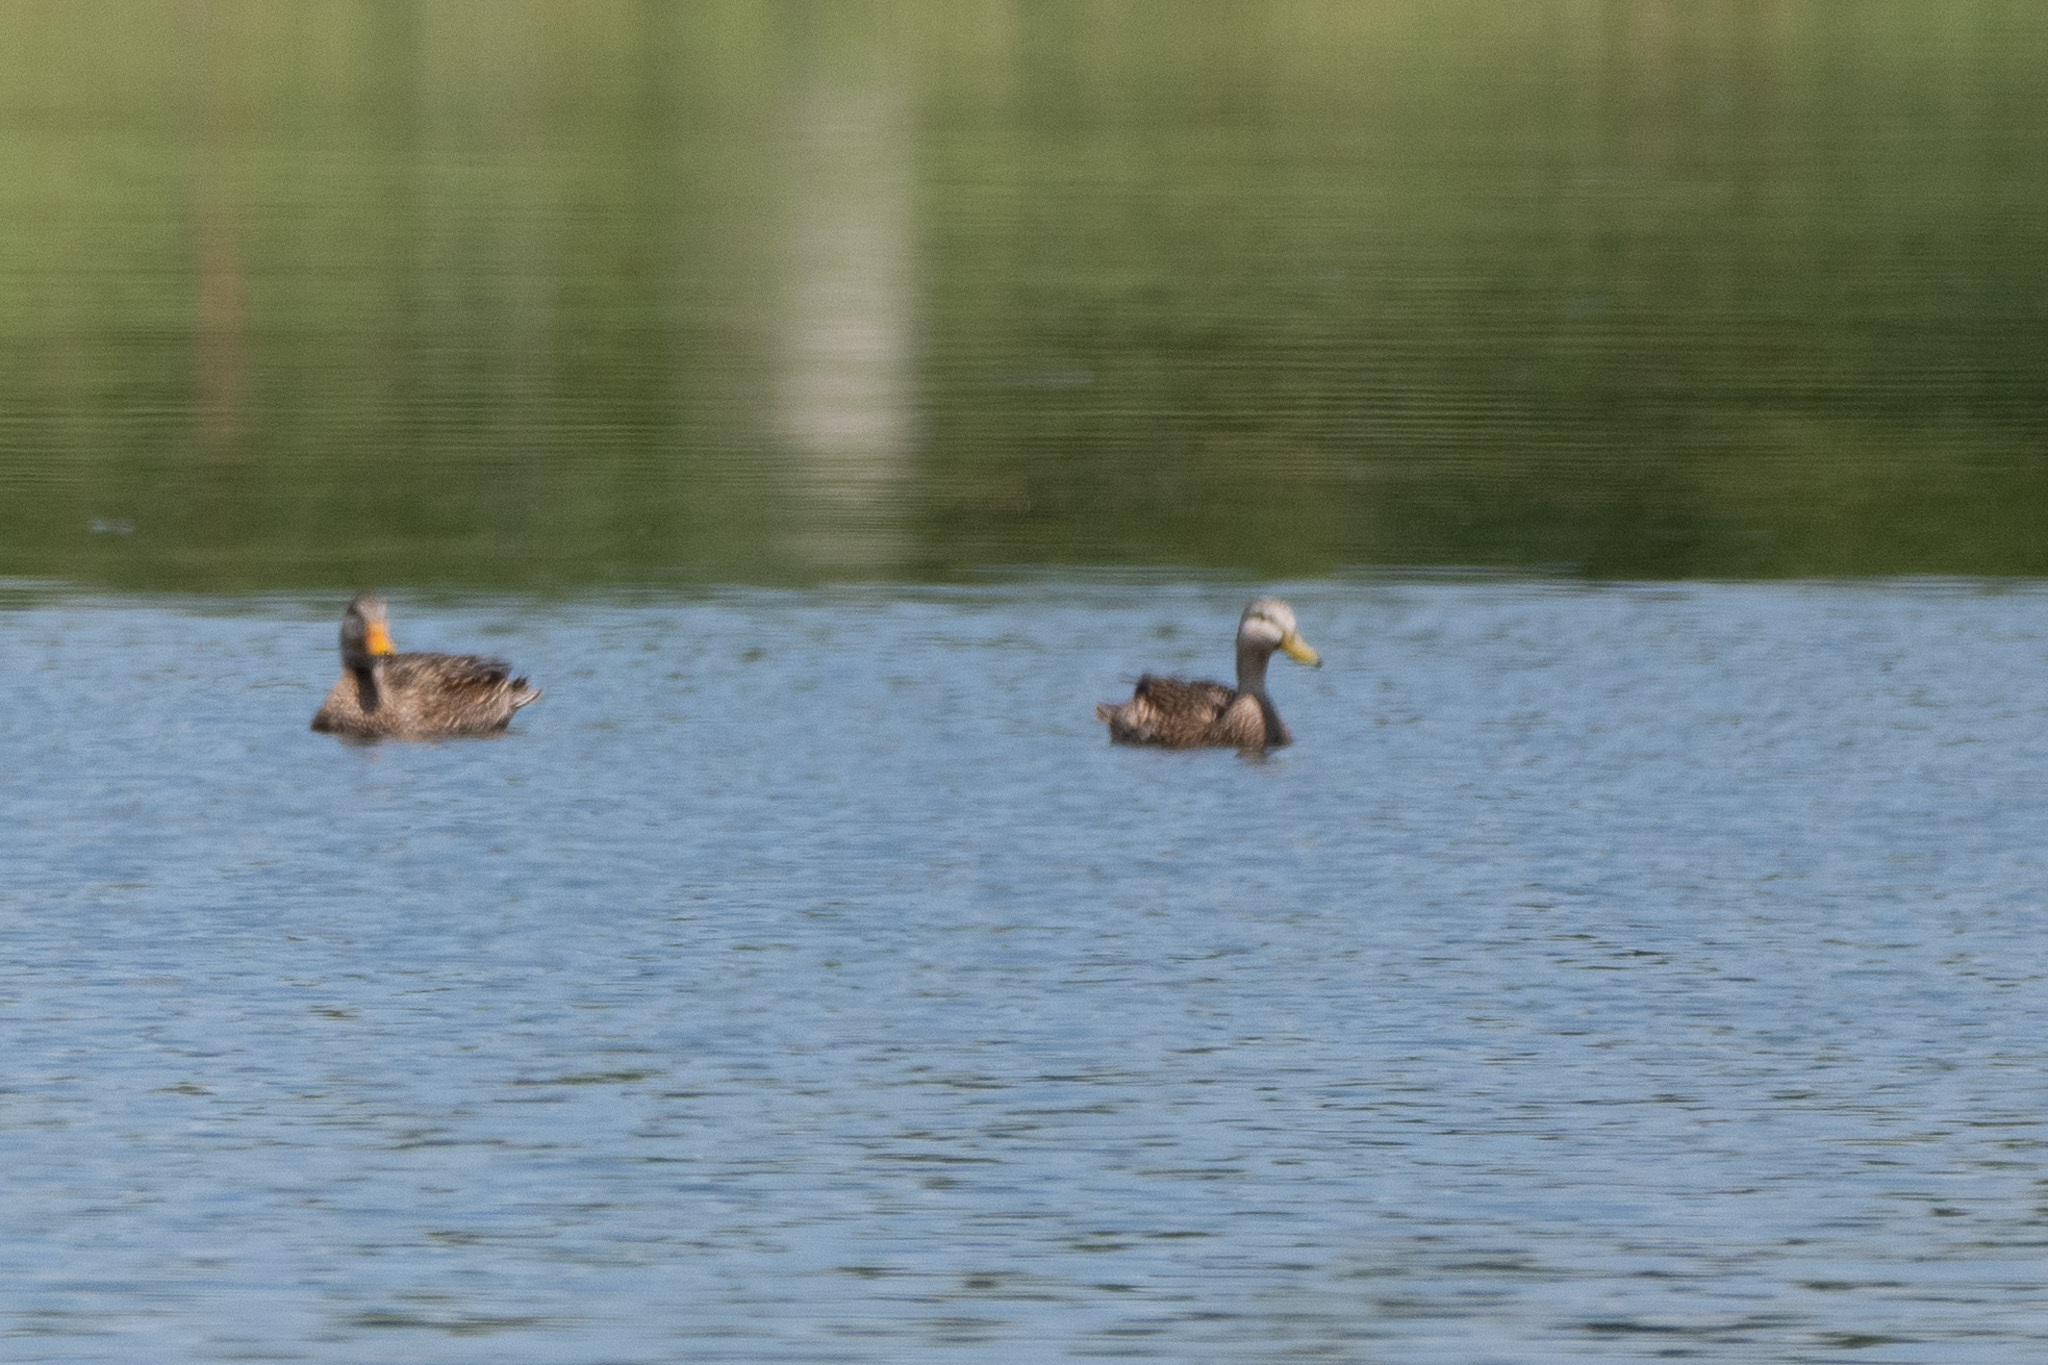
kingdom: Animalia
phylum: Chordata
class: Aves
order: Anseriformes
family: Anatidae
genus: Anas
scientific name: Anas fulvigula
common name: Mottled duck
